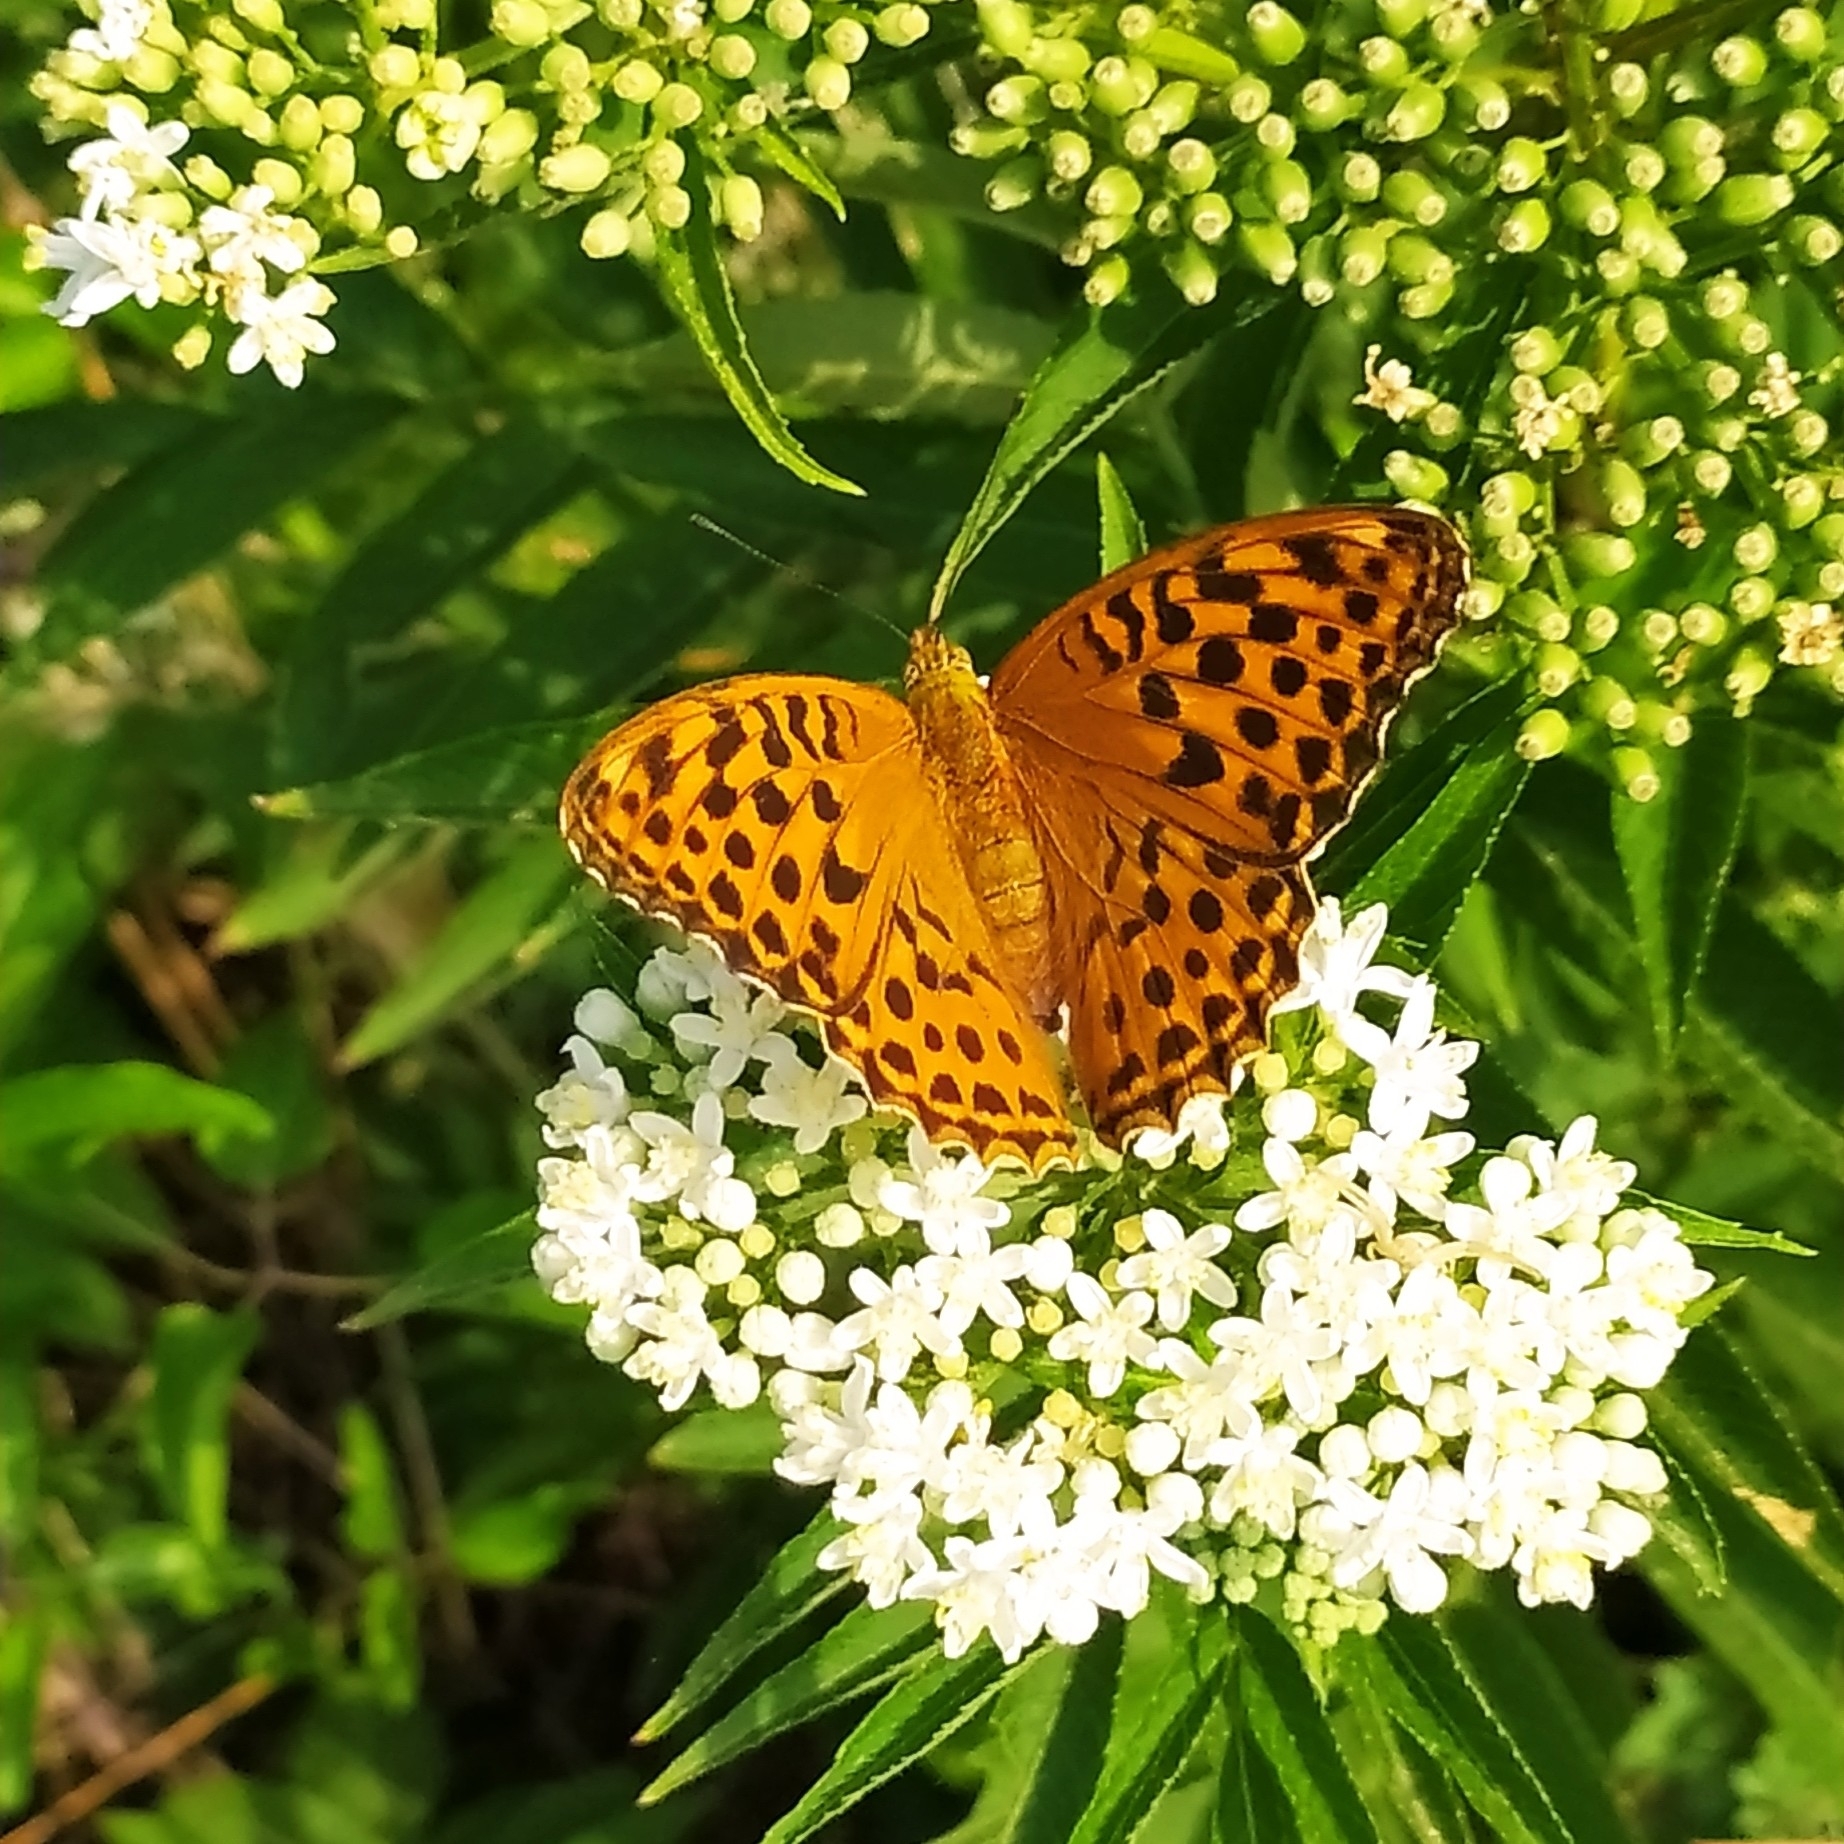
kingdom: Animalia
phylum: Arthropoda
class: Insecta
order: Lepidoptera
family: Nymphalidae
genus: Argynnis
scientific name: Argynnis paphia
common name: Silver-washed fritillary
